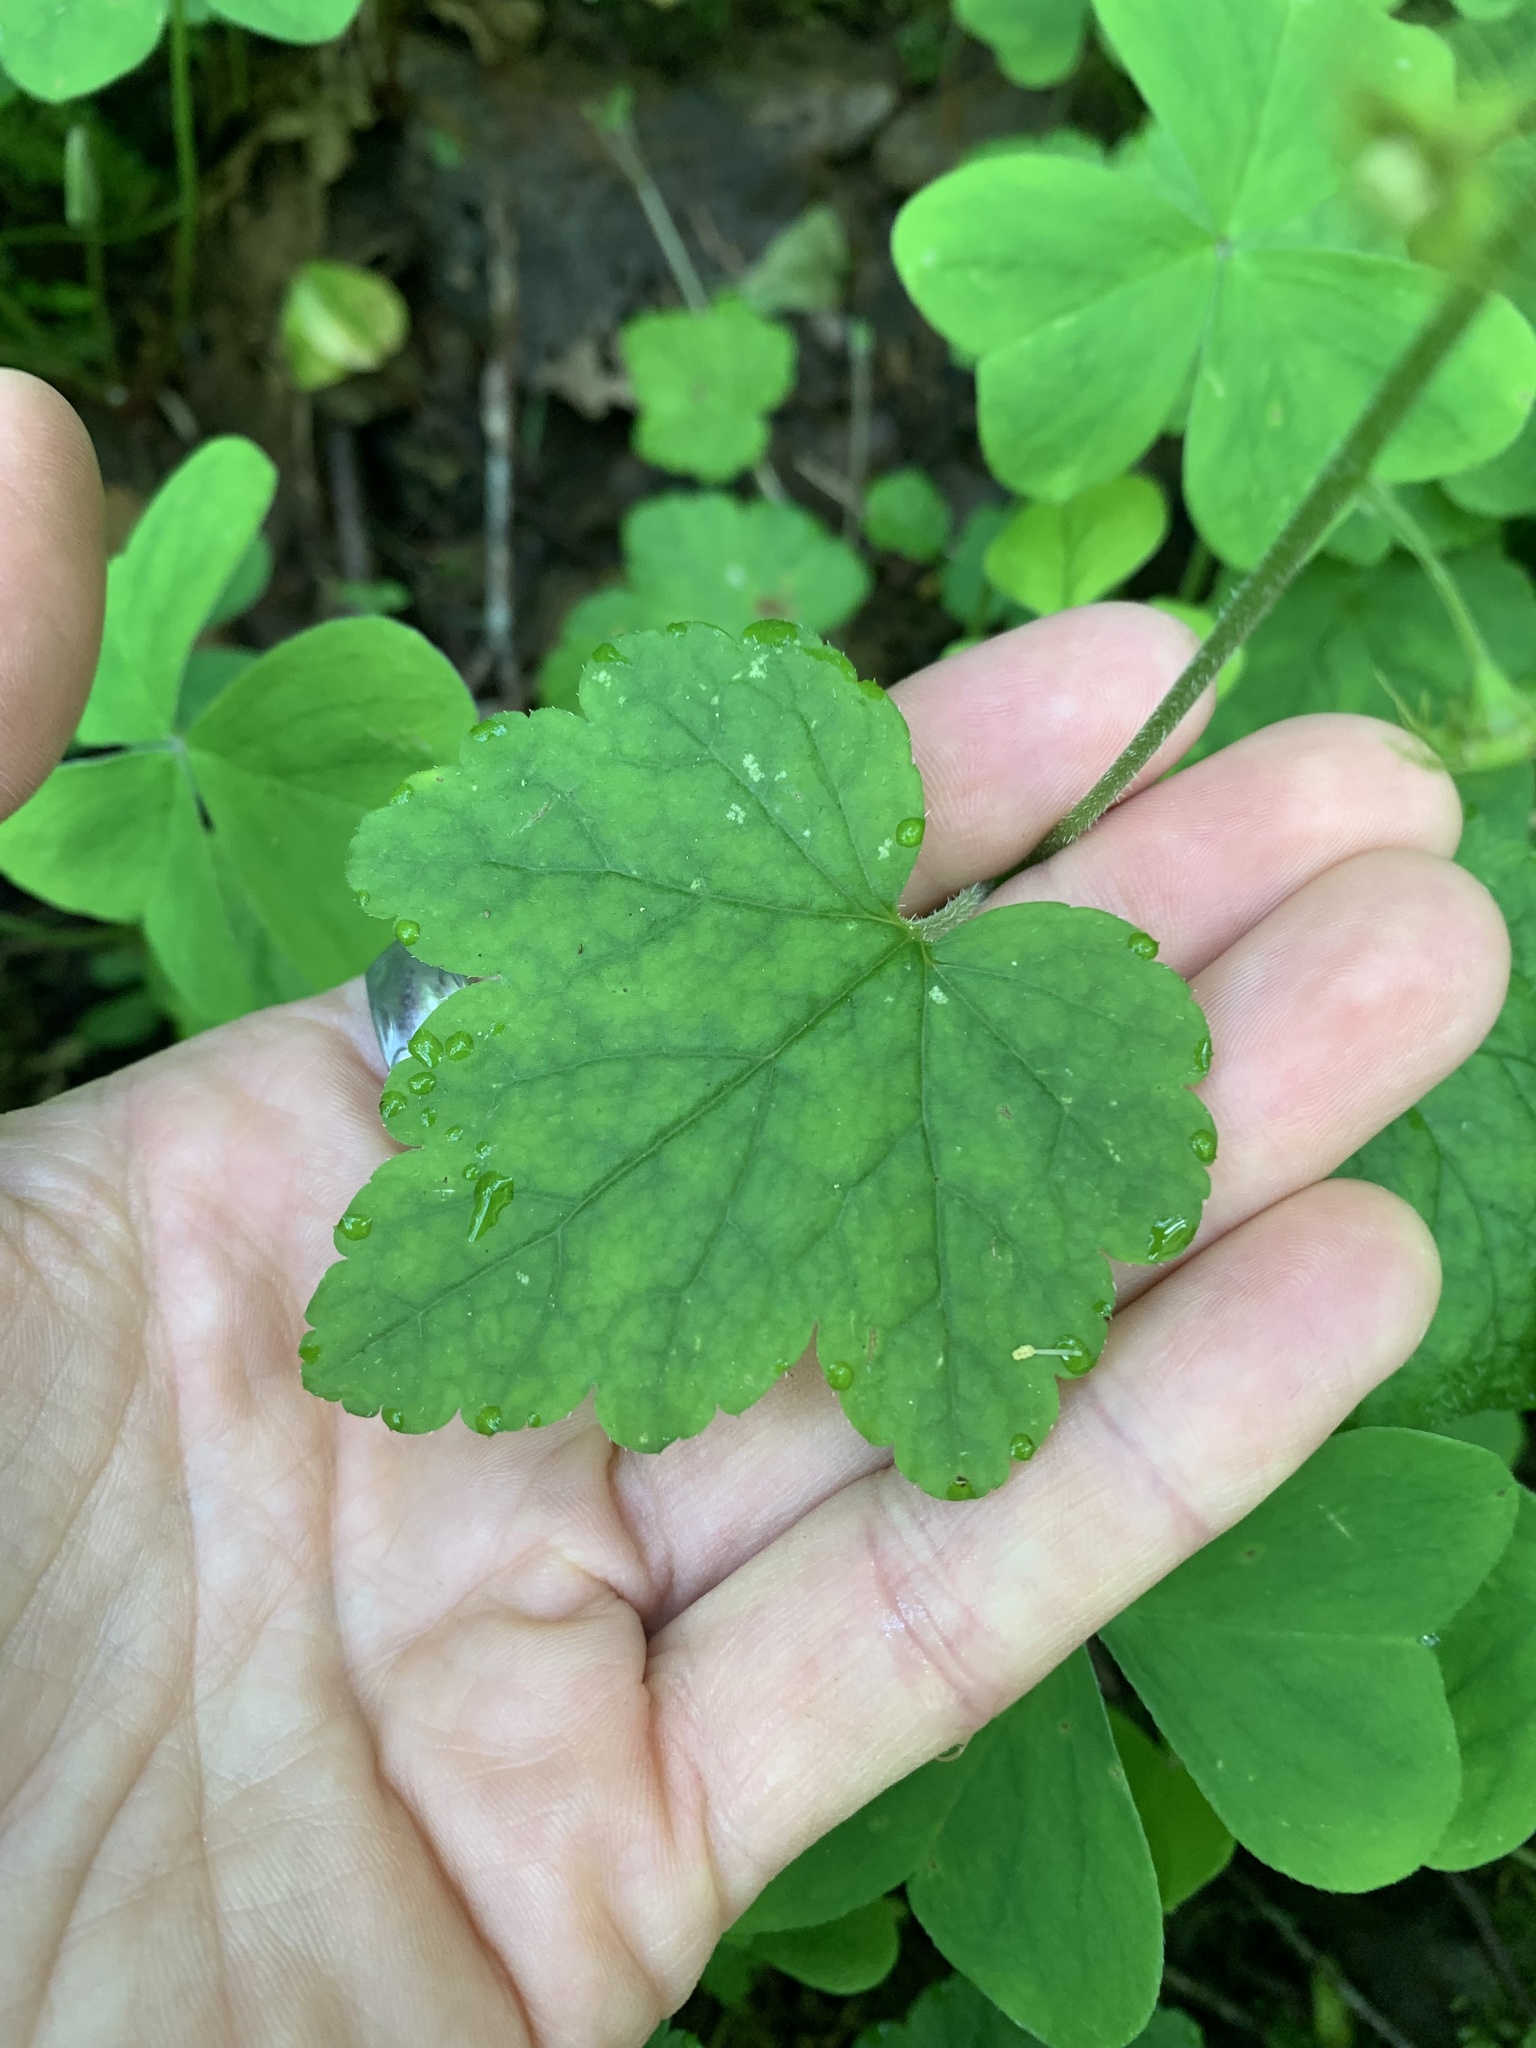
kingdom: Plantae
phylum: Tracheophyta
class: Magnoliopsida
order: Saxifragales
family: Saxifragaceae
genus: Mitellastra
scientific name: Mitellastra caulescens
